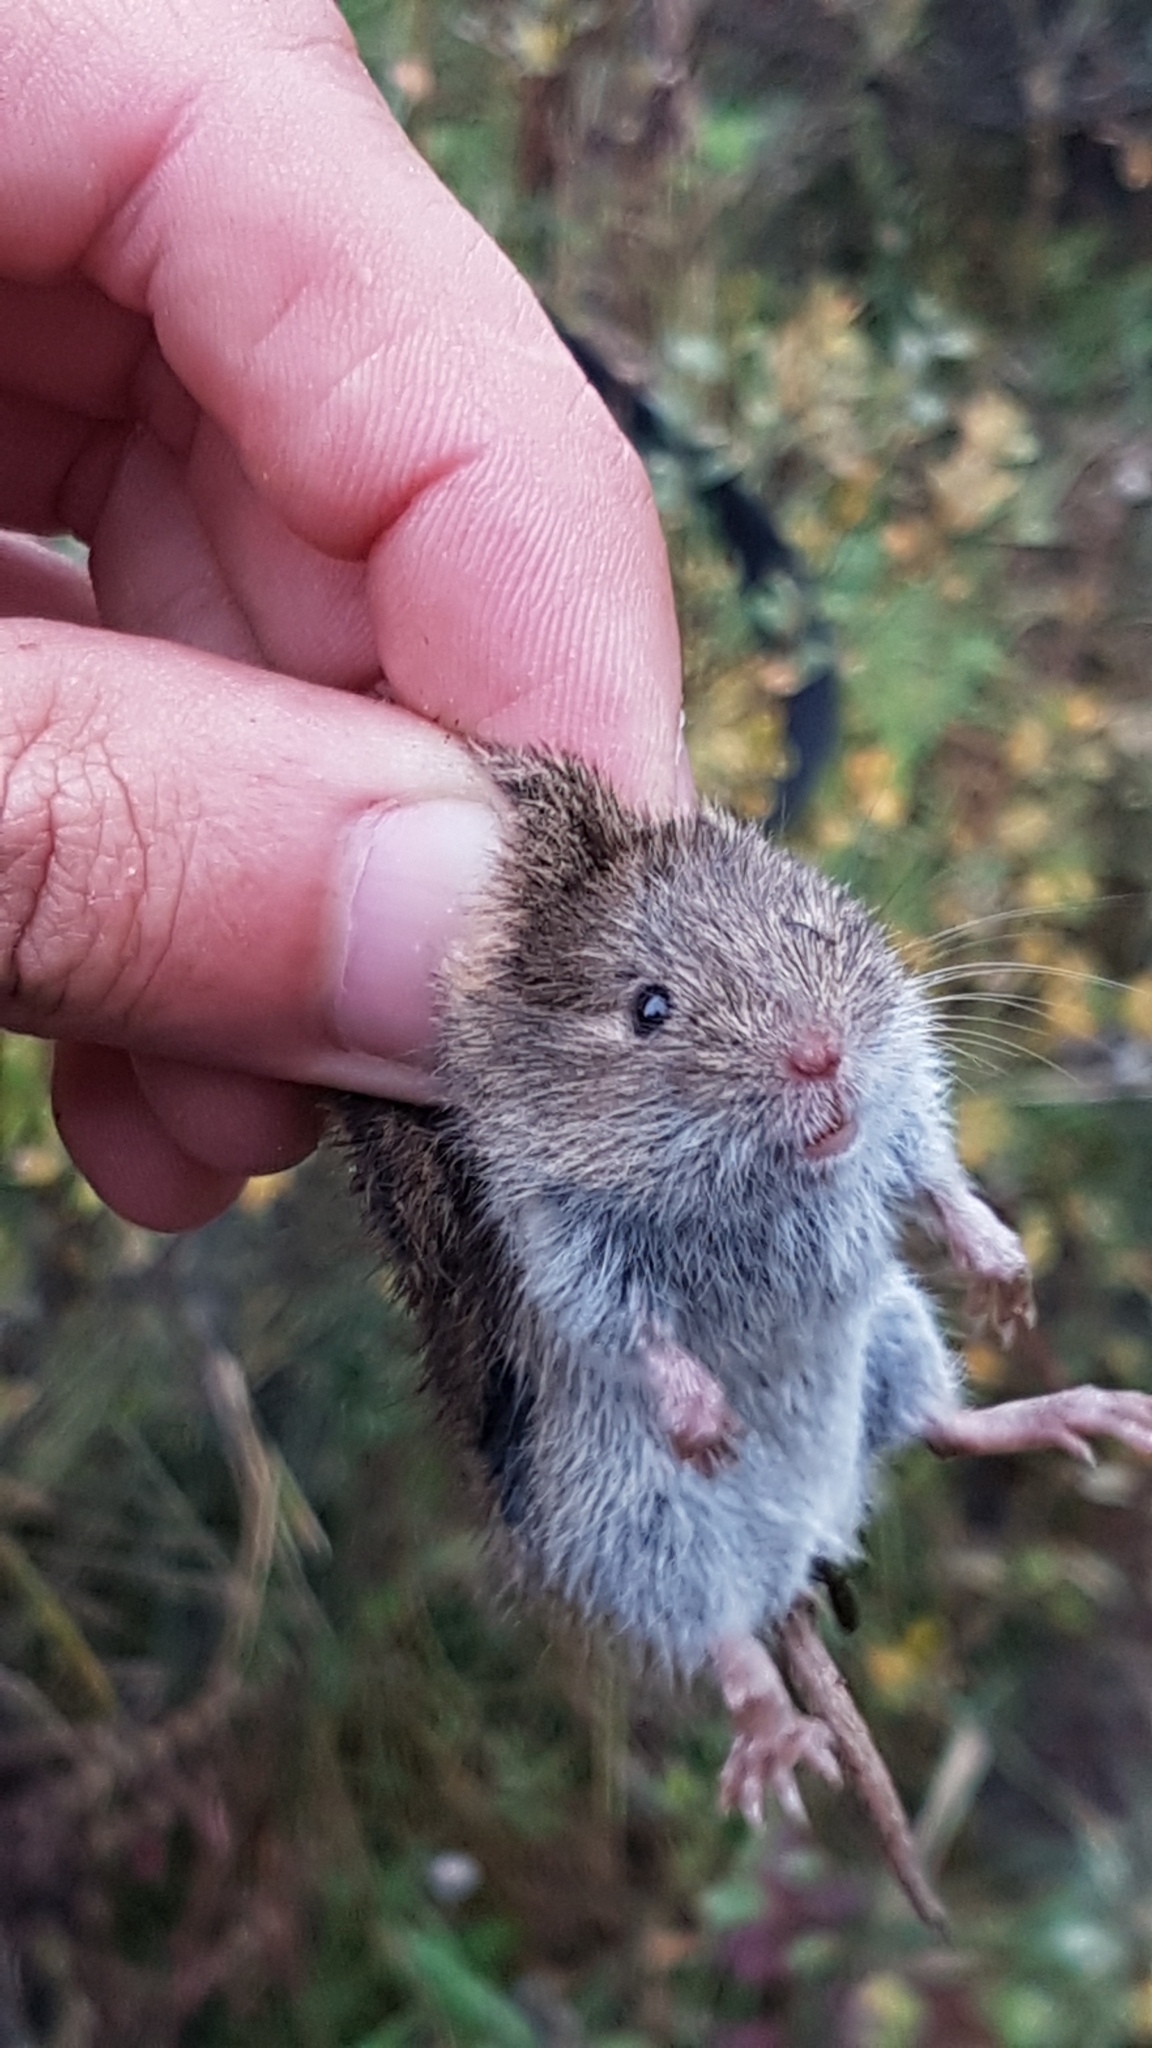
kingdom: Animalia
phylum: Chordata
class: Mammalia
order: Rodentia
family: Cricetidae
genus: Microtus
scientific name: Microtus arvalis
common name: Common vole
